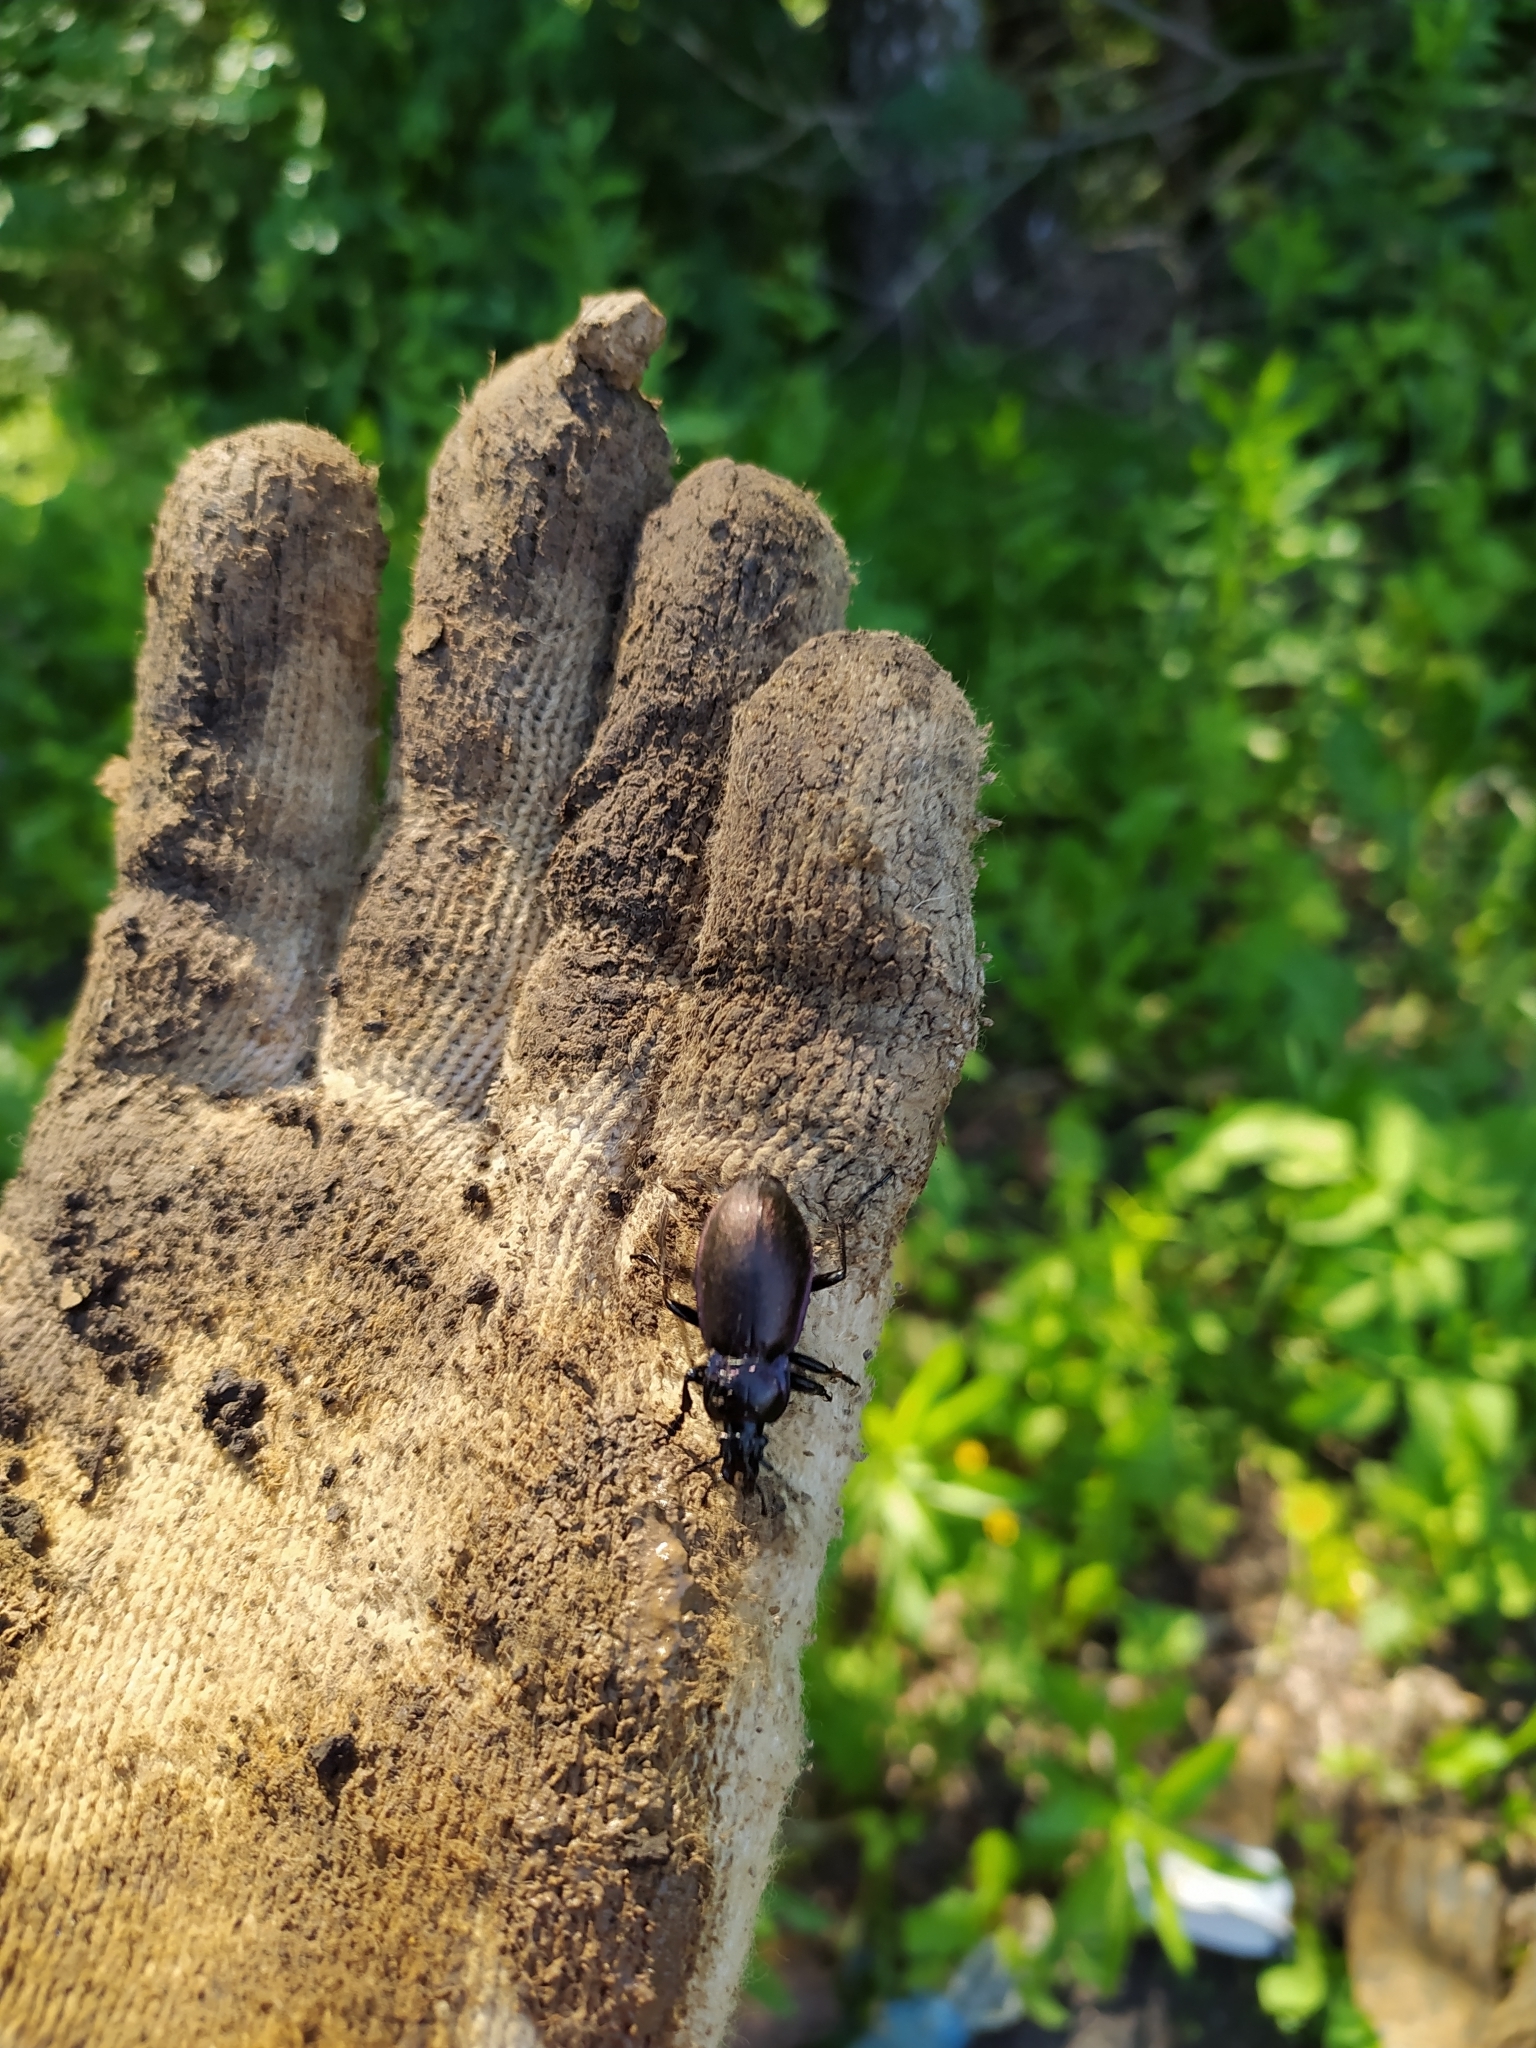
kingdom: Animalia
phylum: Arthropoda
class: Insecta
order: Coleoptera
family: Carabidae
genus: Carabus
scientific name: Carabus nemoralis
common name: European ground beetle
